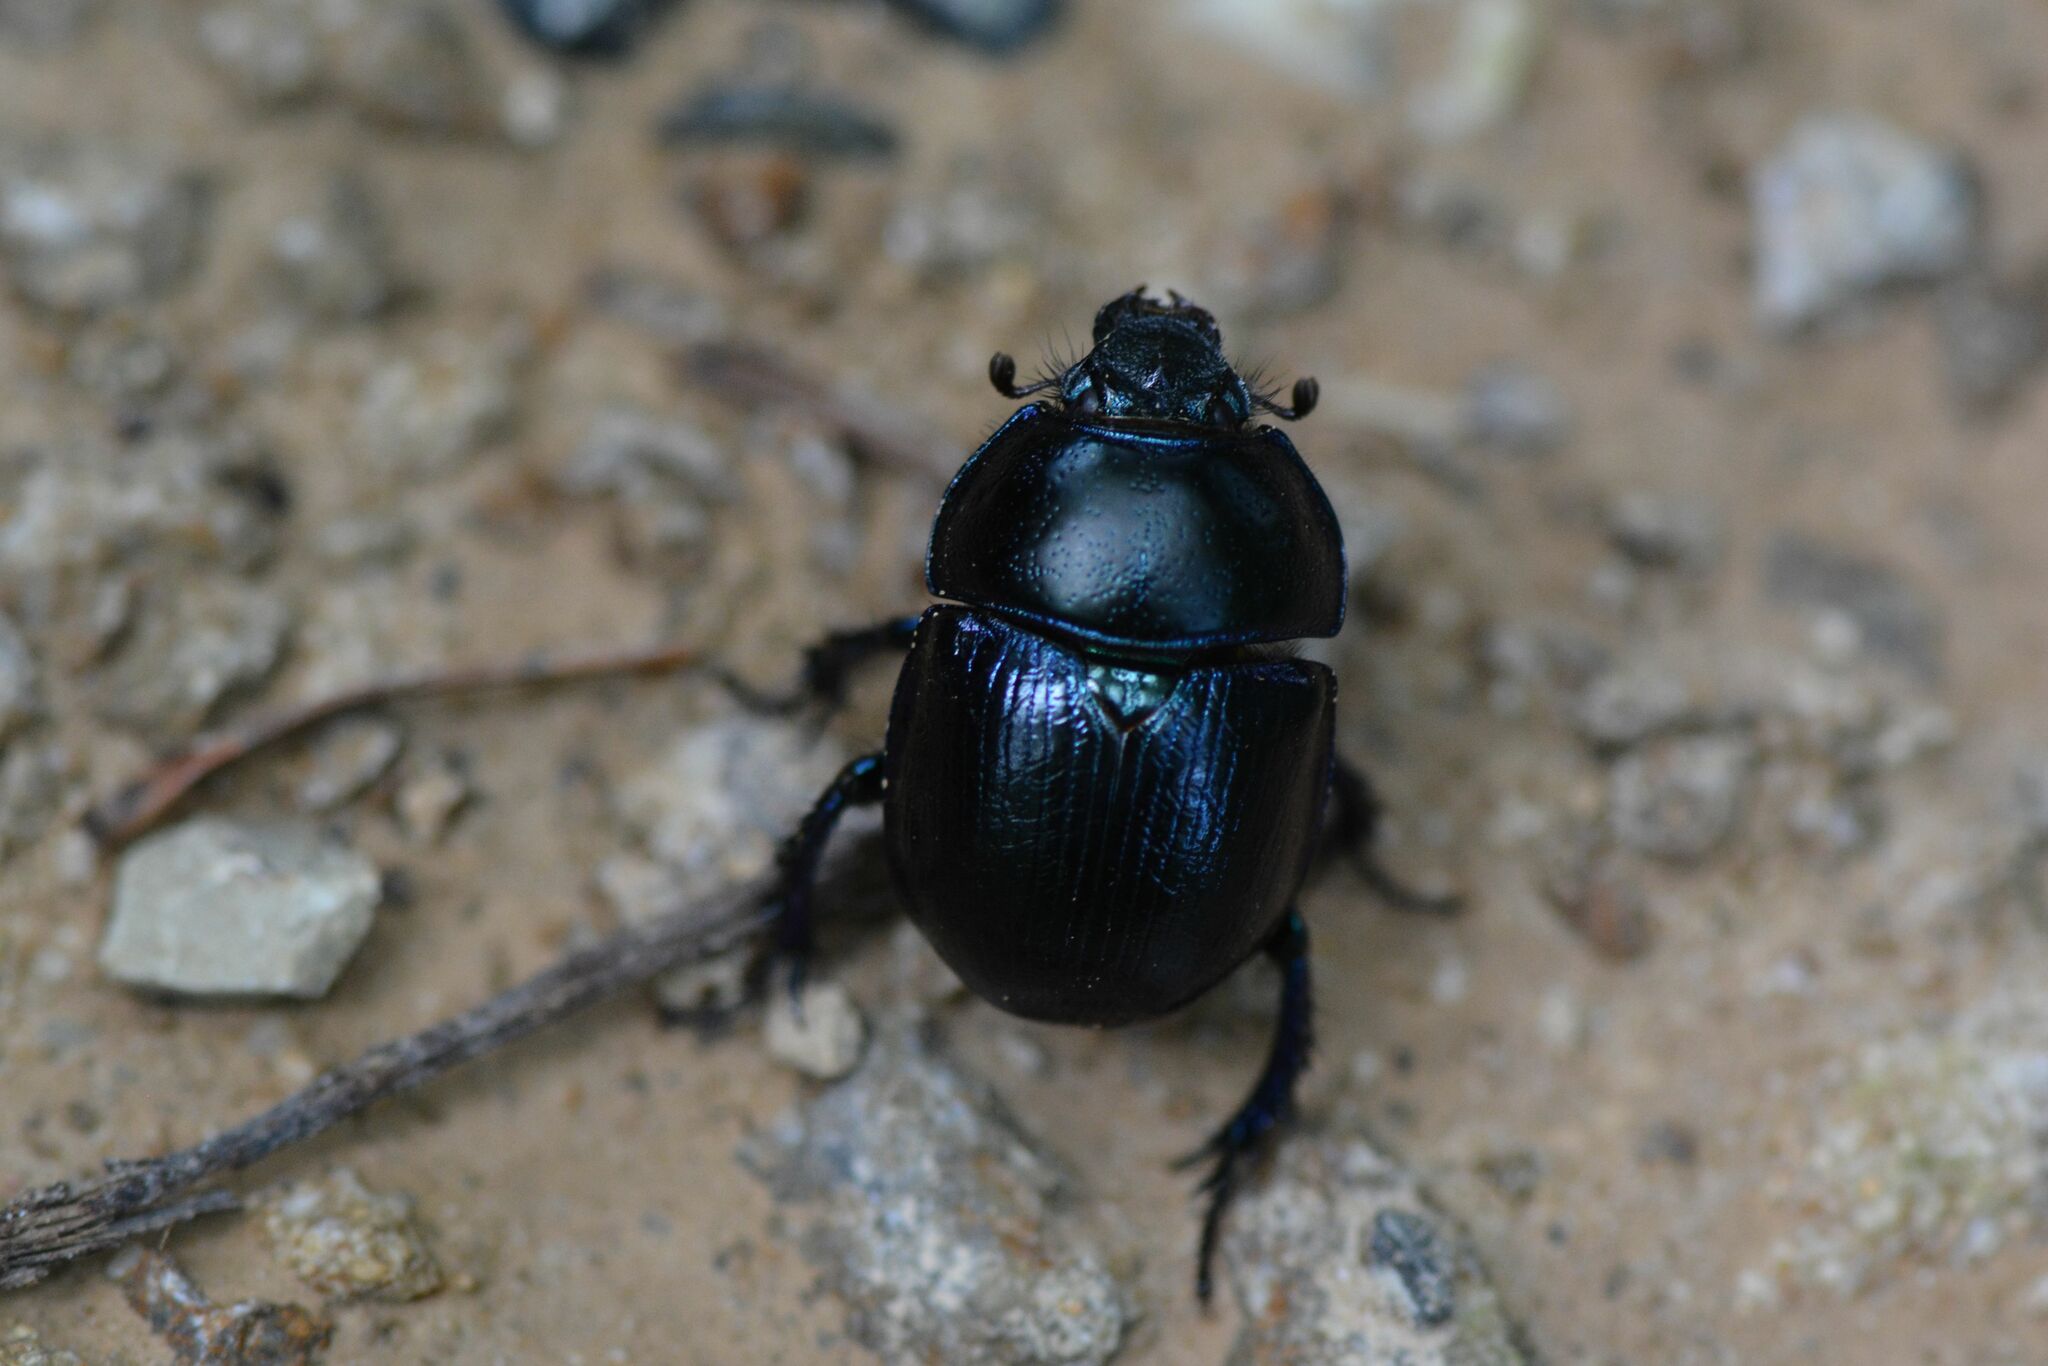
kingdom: Animalia
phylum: Arthropoda
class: Insecta
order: Coleoptera
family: Geotrupidae
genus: Anoplotrupes
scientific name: Anoplotrupes stercorosus
